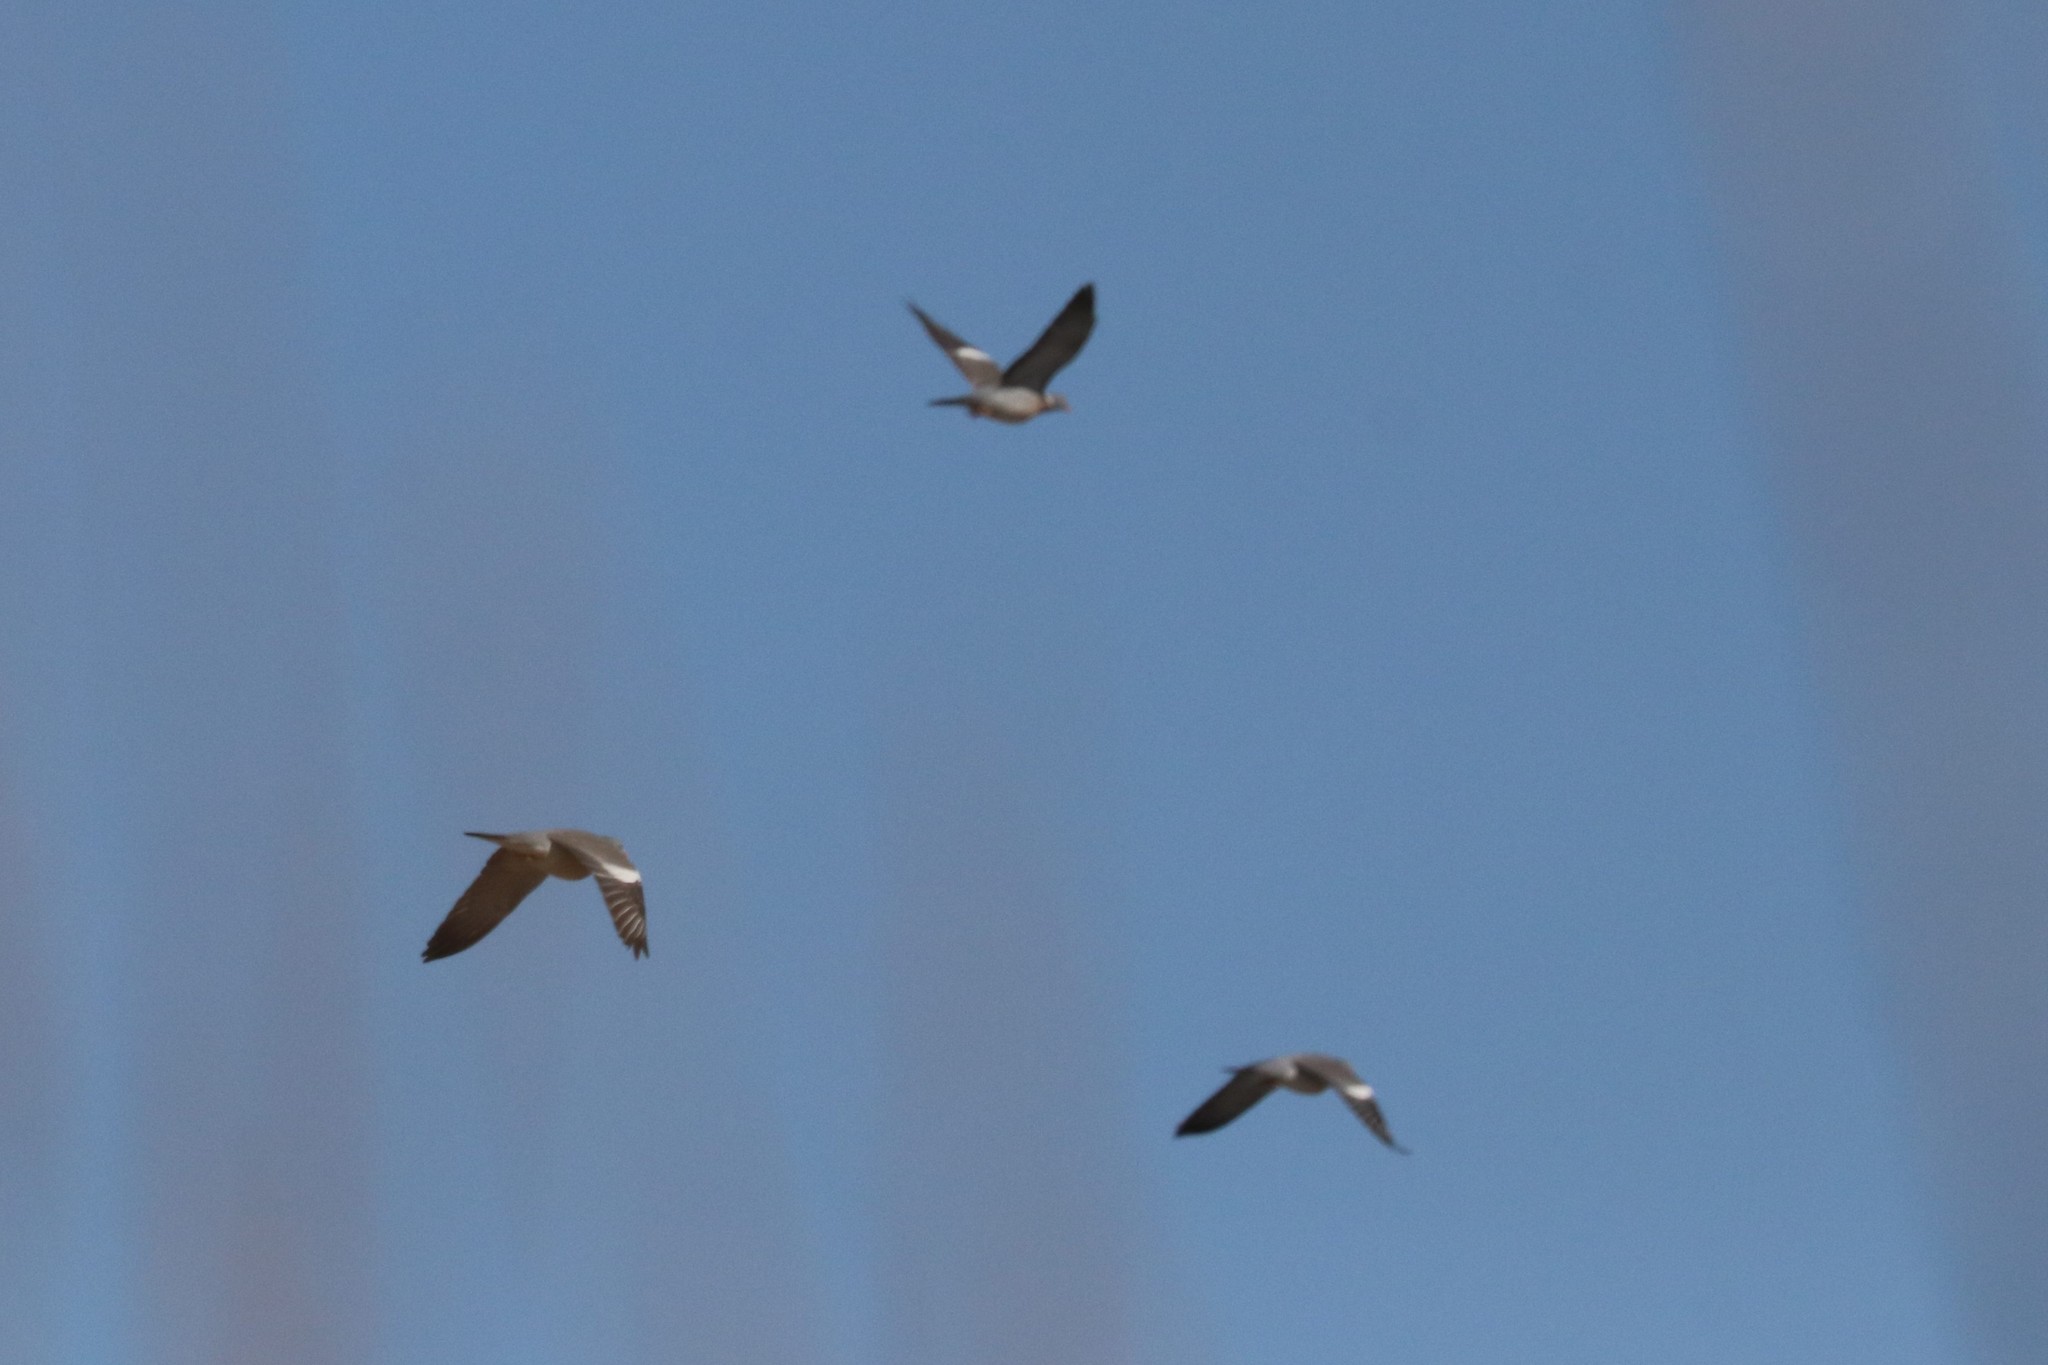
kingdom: Animalia
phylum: Chordata
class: Aves
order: Columbiformes
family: Columbidae
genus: Columba
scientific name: Columba palumbus
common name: Common wood pigeon
